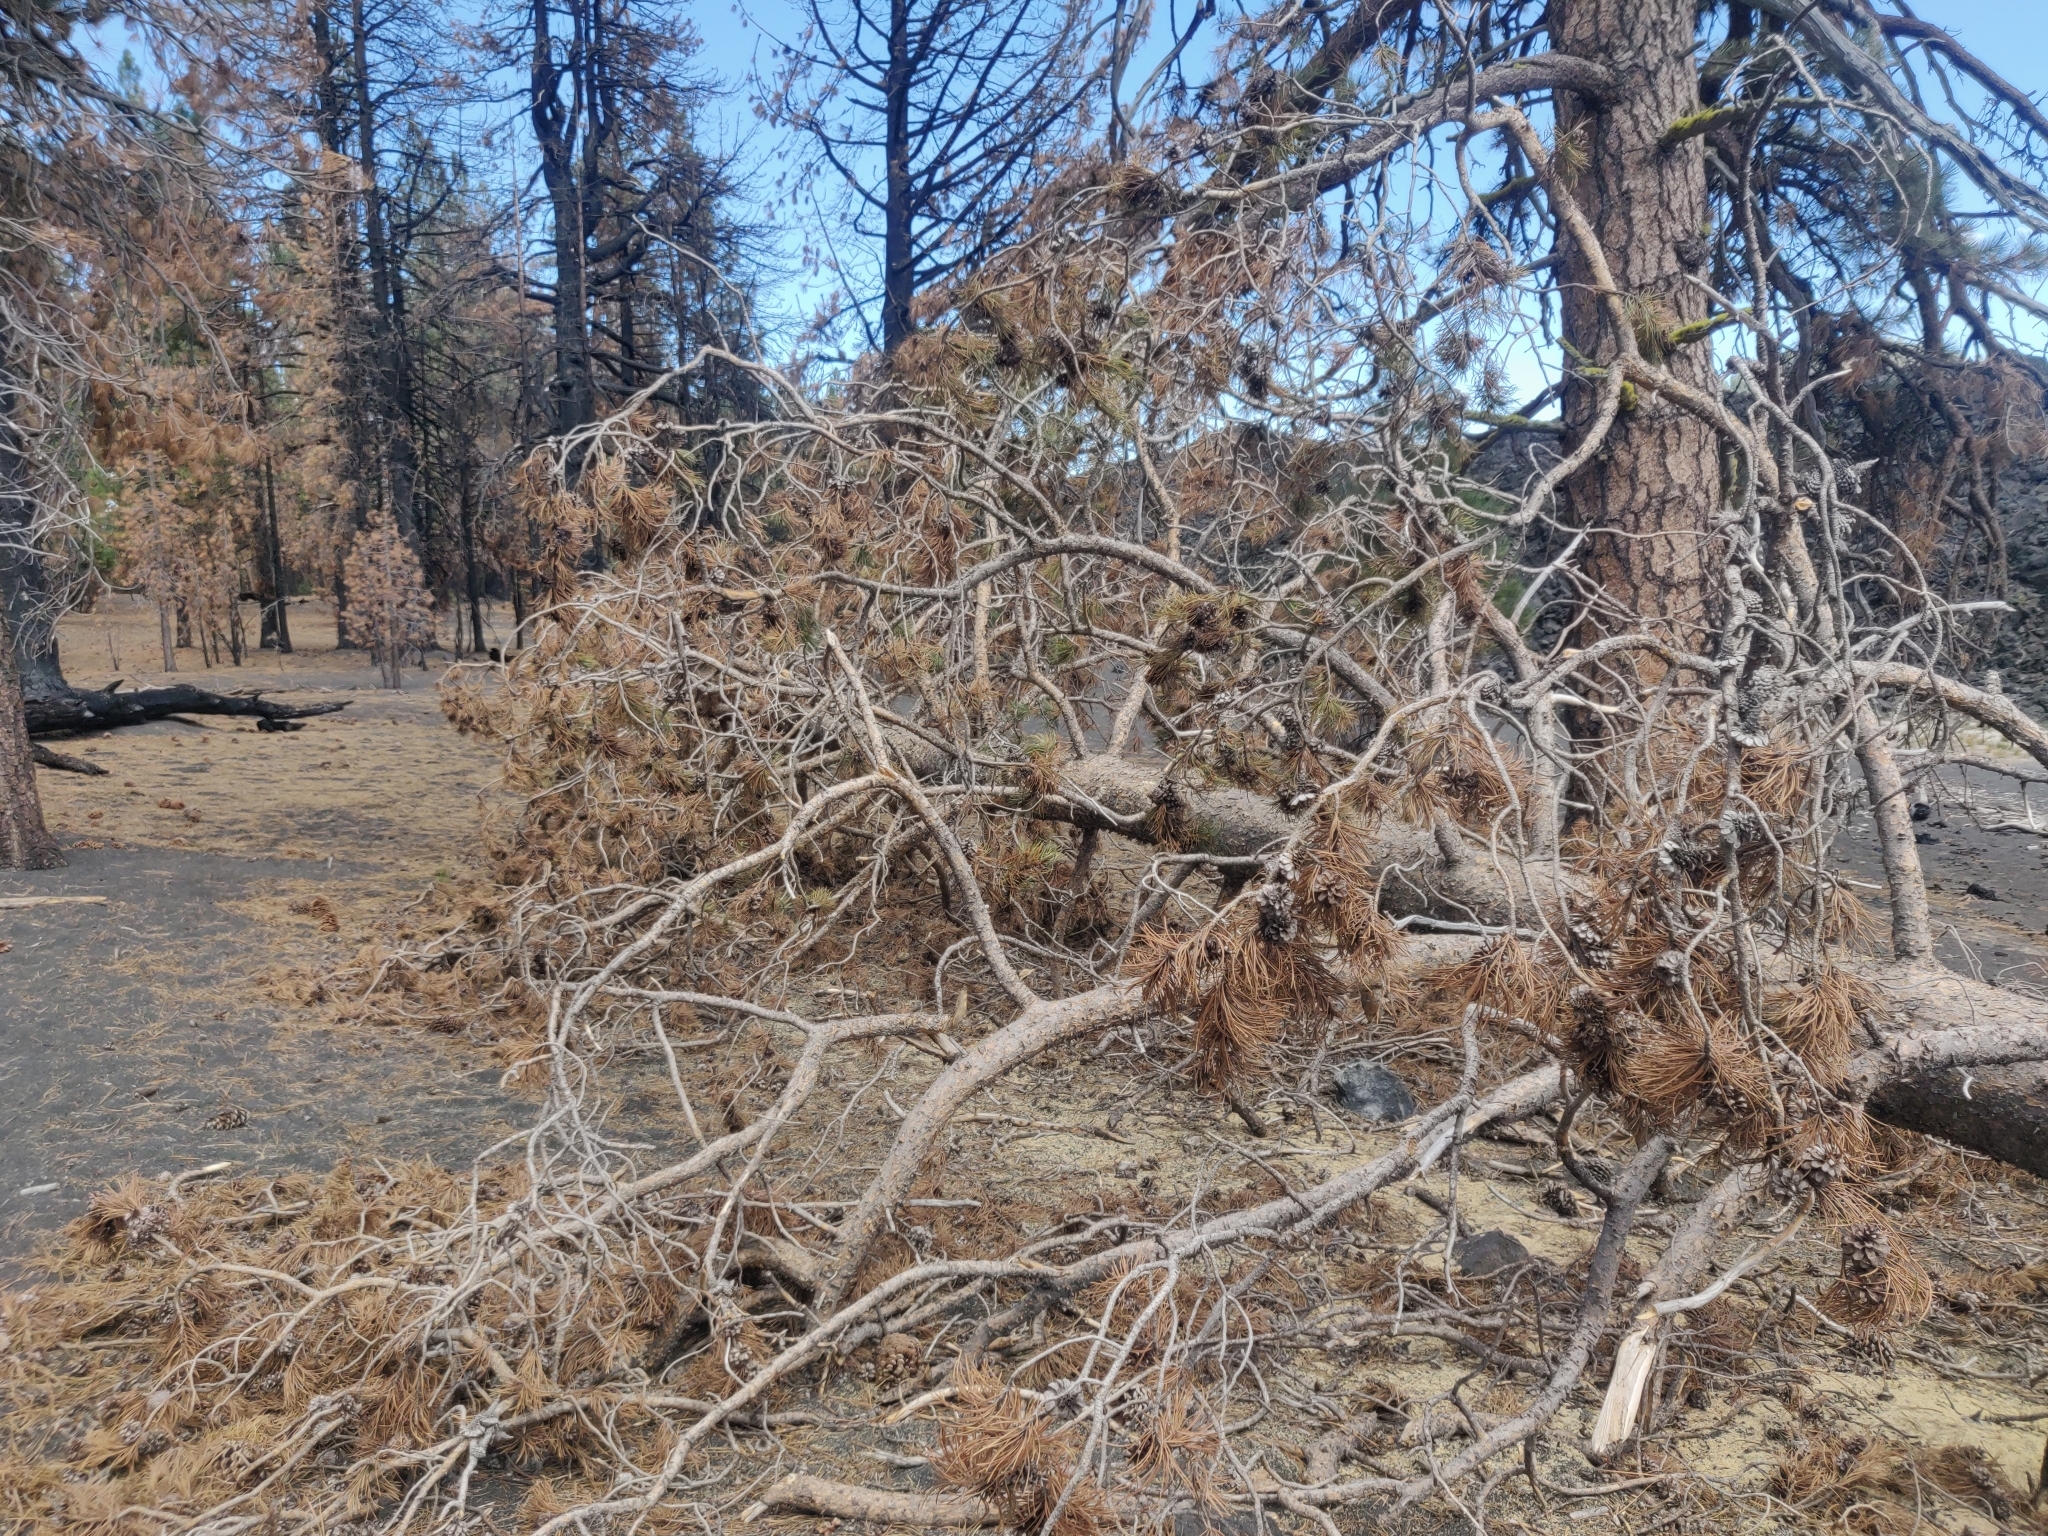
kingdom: Plantae
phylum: Tracheophyta
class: Pinopsida
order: Pinales
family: Pinaceae
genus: Pinus
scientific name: Pinus contorta
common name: Lodgepole pine
